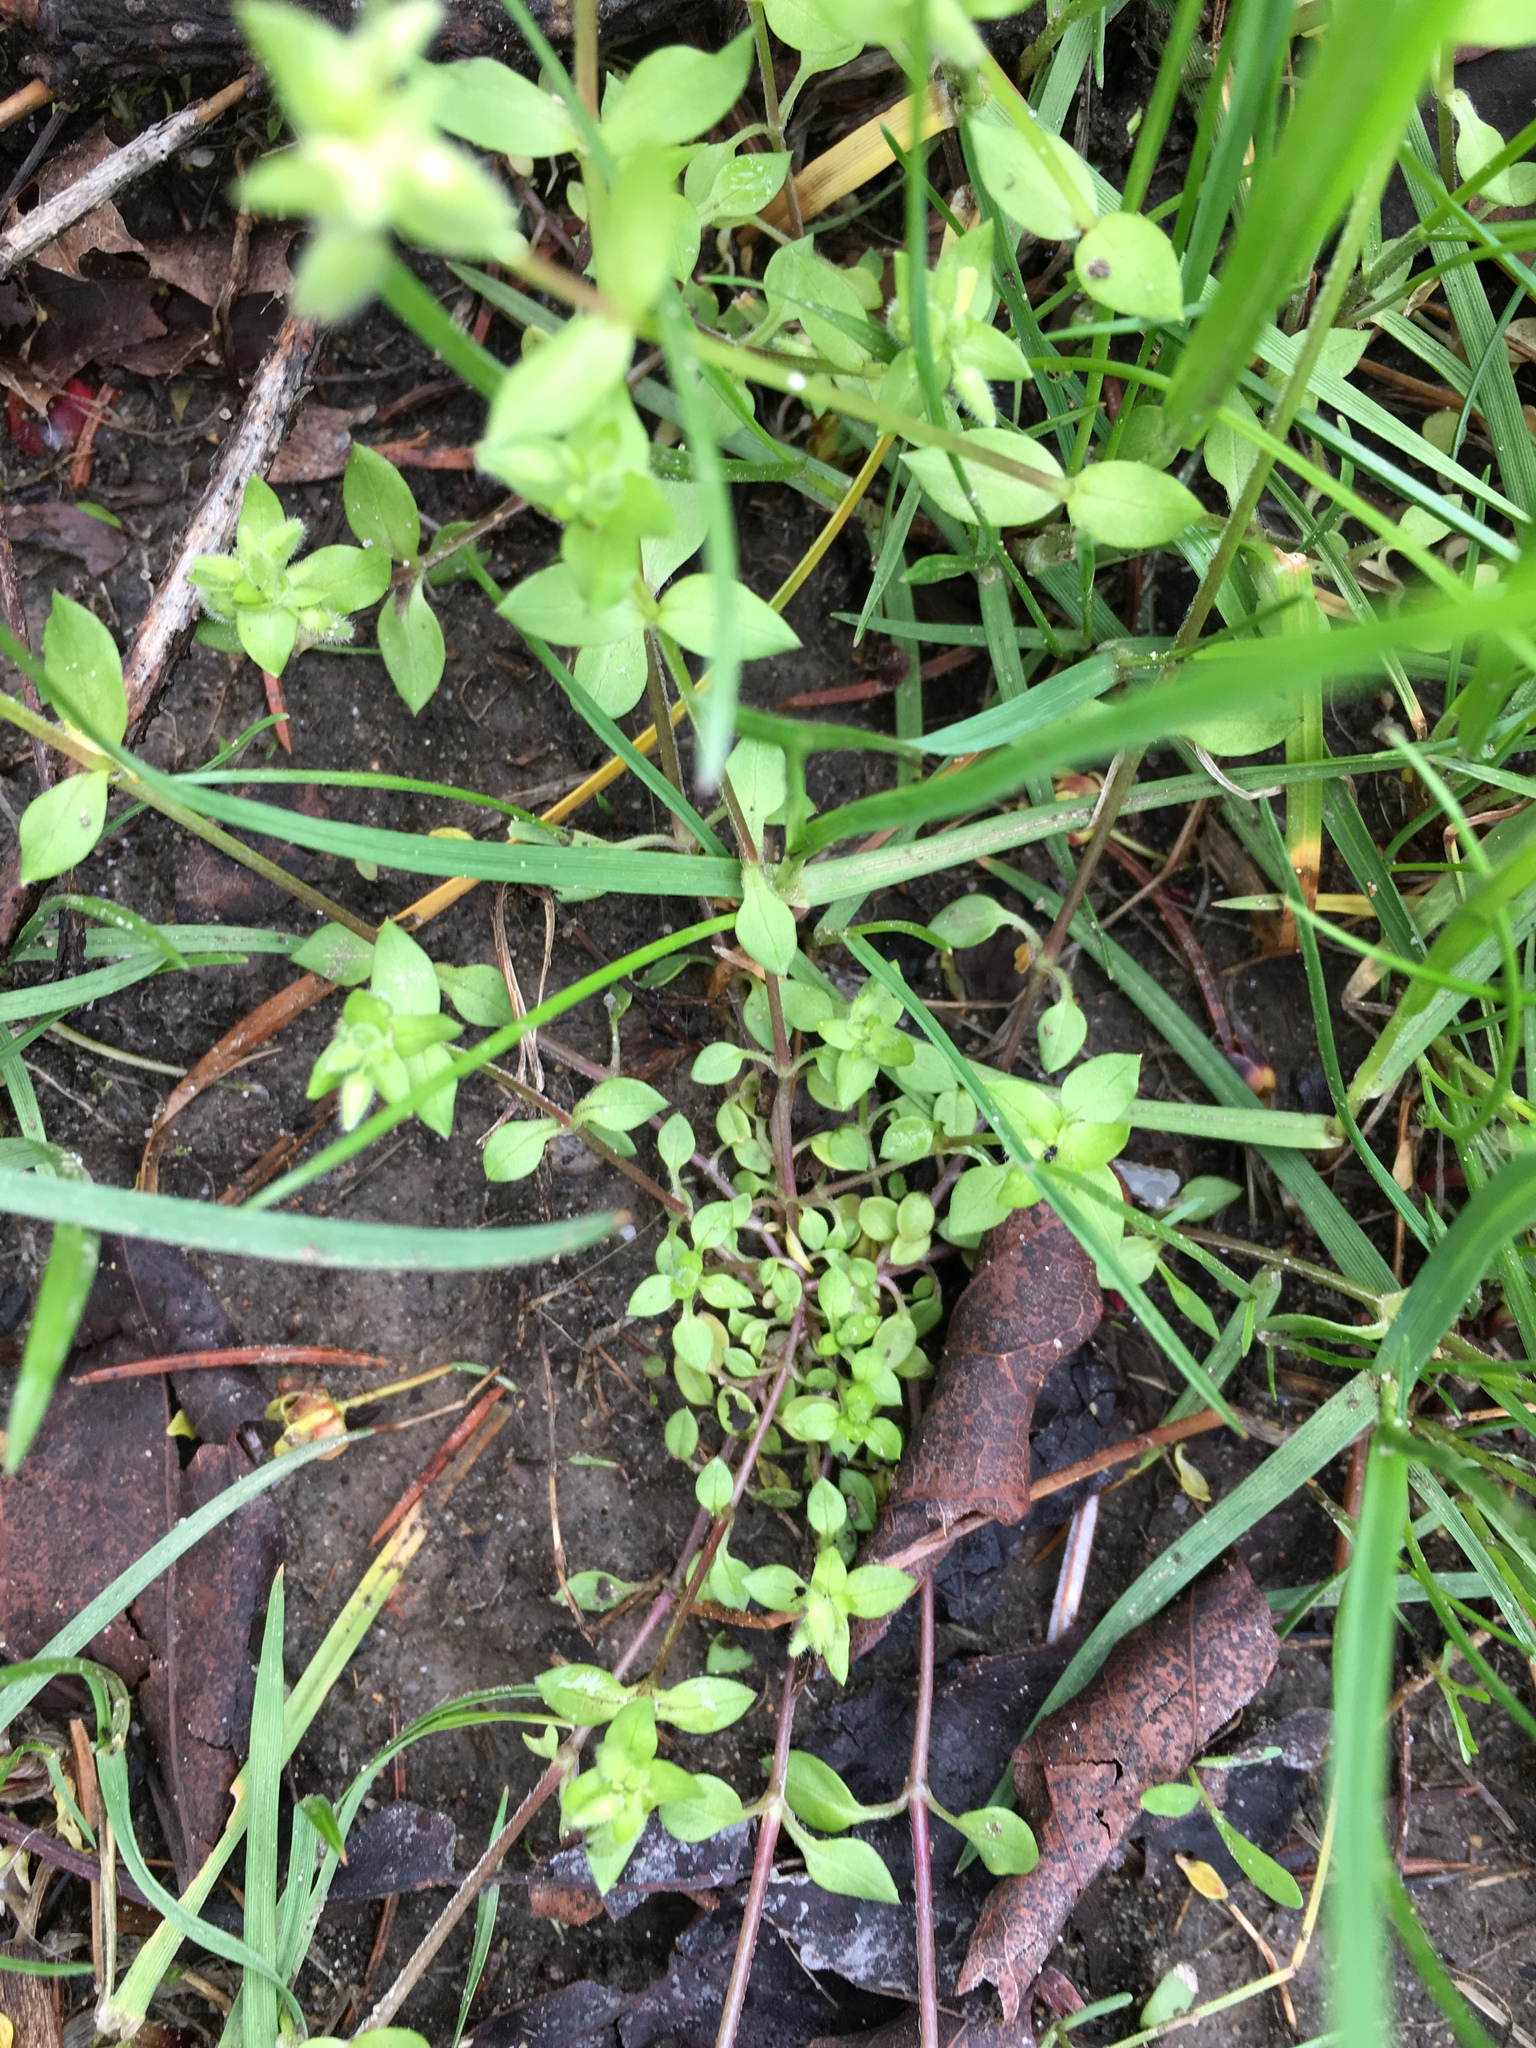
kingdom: Plantae
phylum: Tracheophyta
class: Magnoliopsida
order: Caryophyllales
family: Caryophyllaceae
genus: Stellaria
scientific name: Stellaria media
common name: Common chickweed
